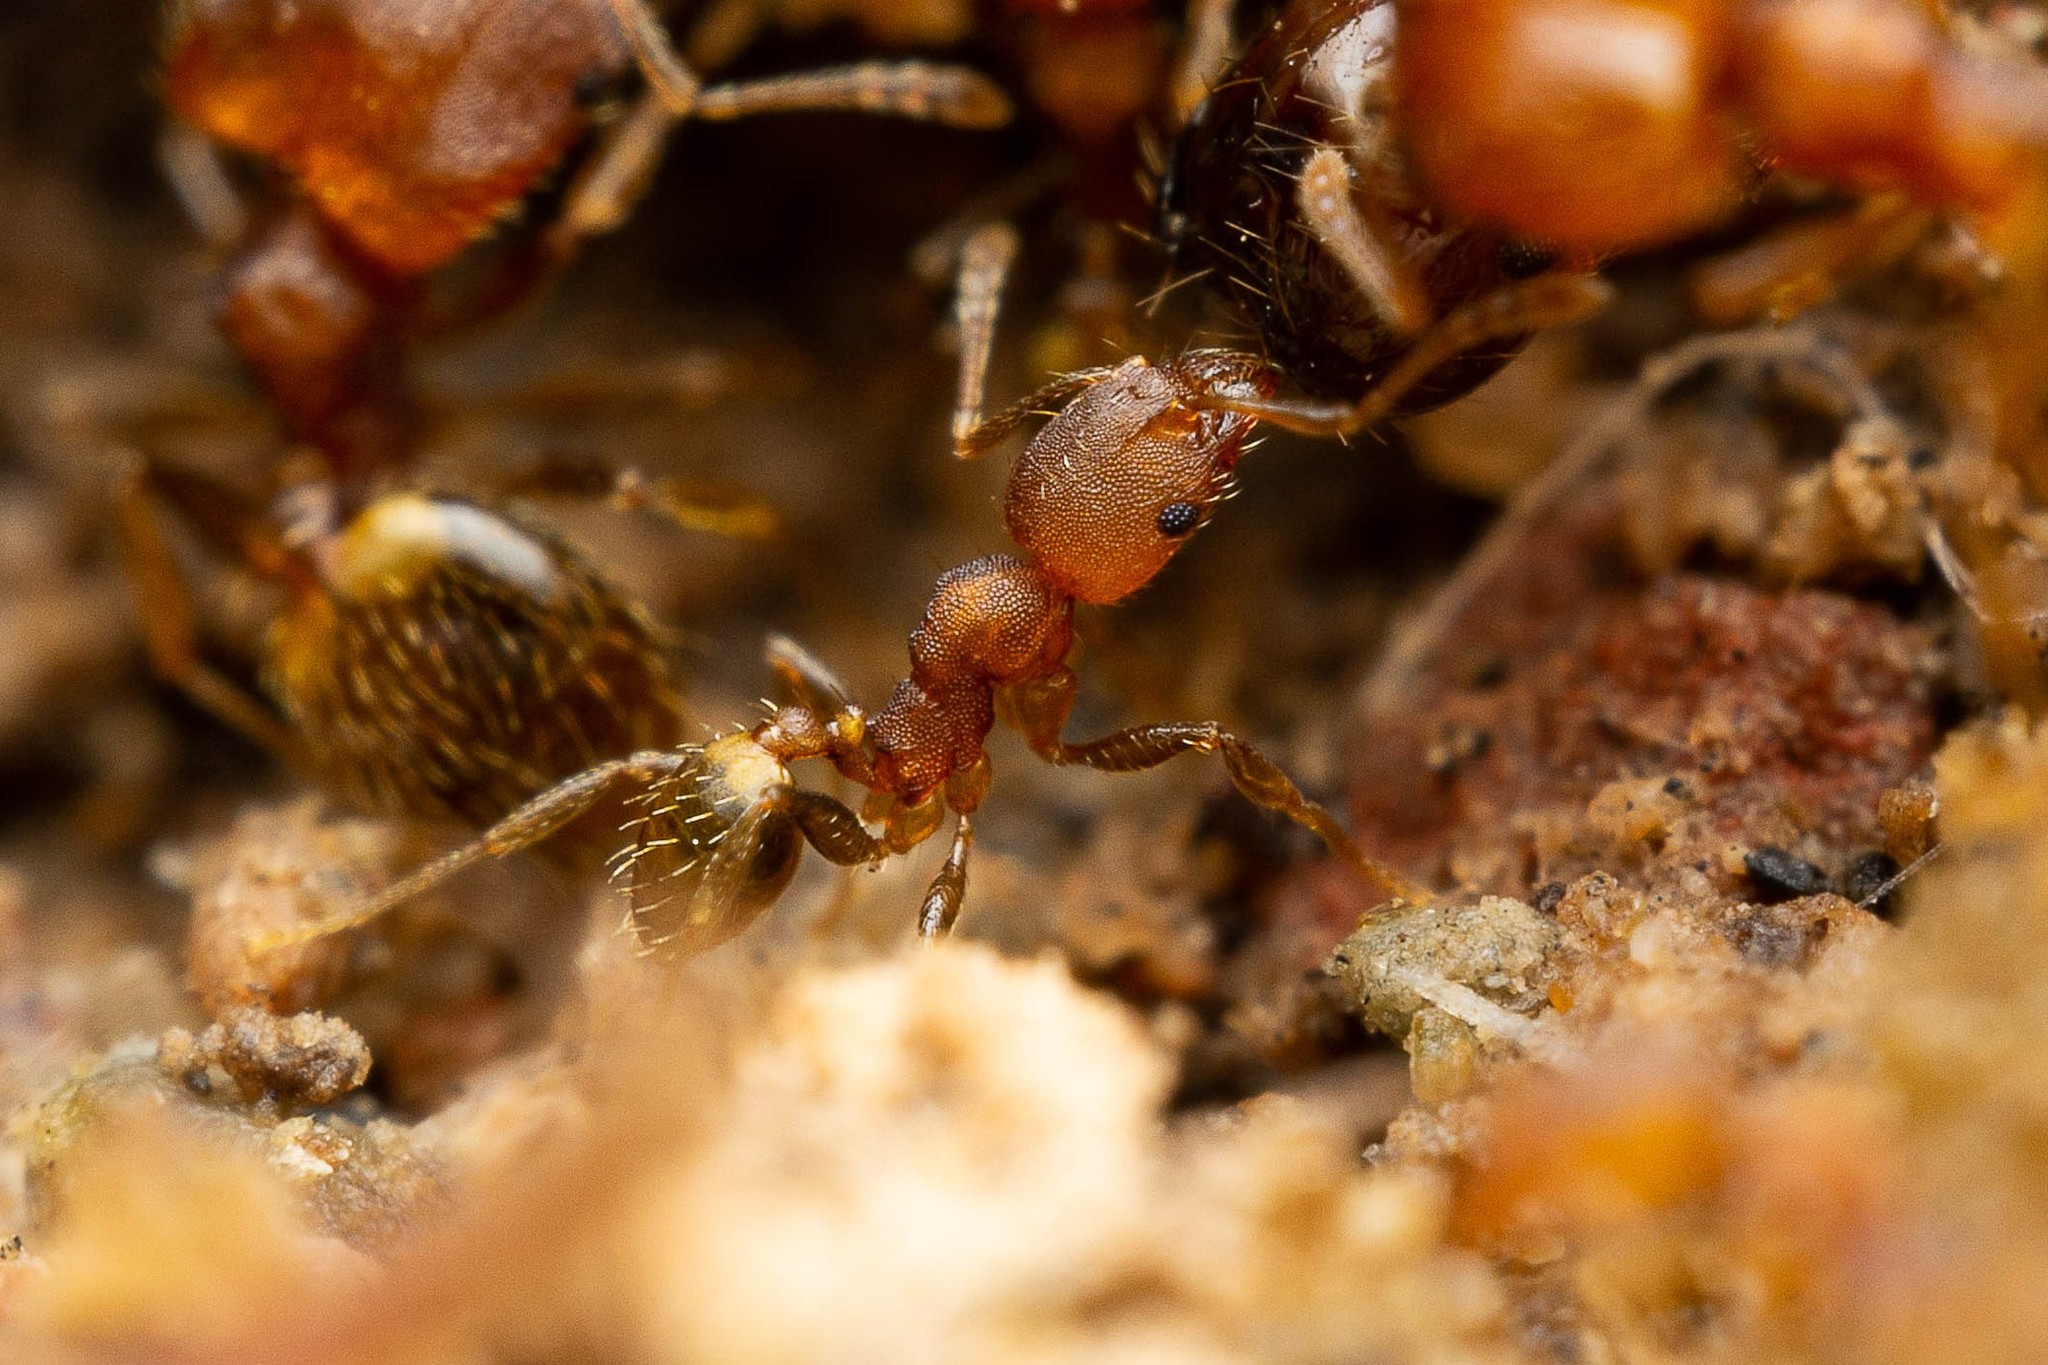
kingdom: Animalia
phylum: Arthropoda
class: Insecta
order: Hymenoptera
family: Formicidae
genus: Pheidole
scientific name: Pheidole bilimeki
